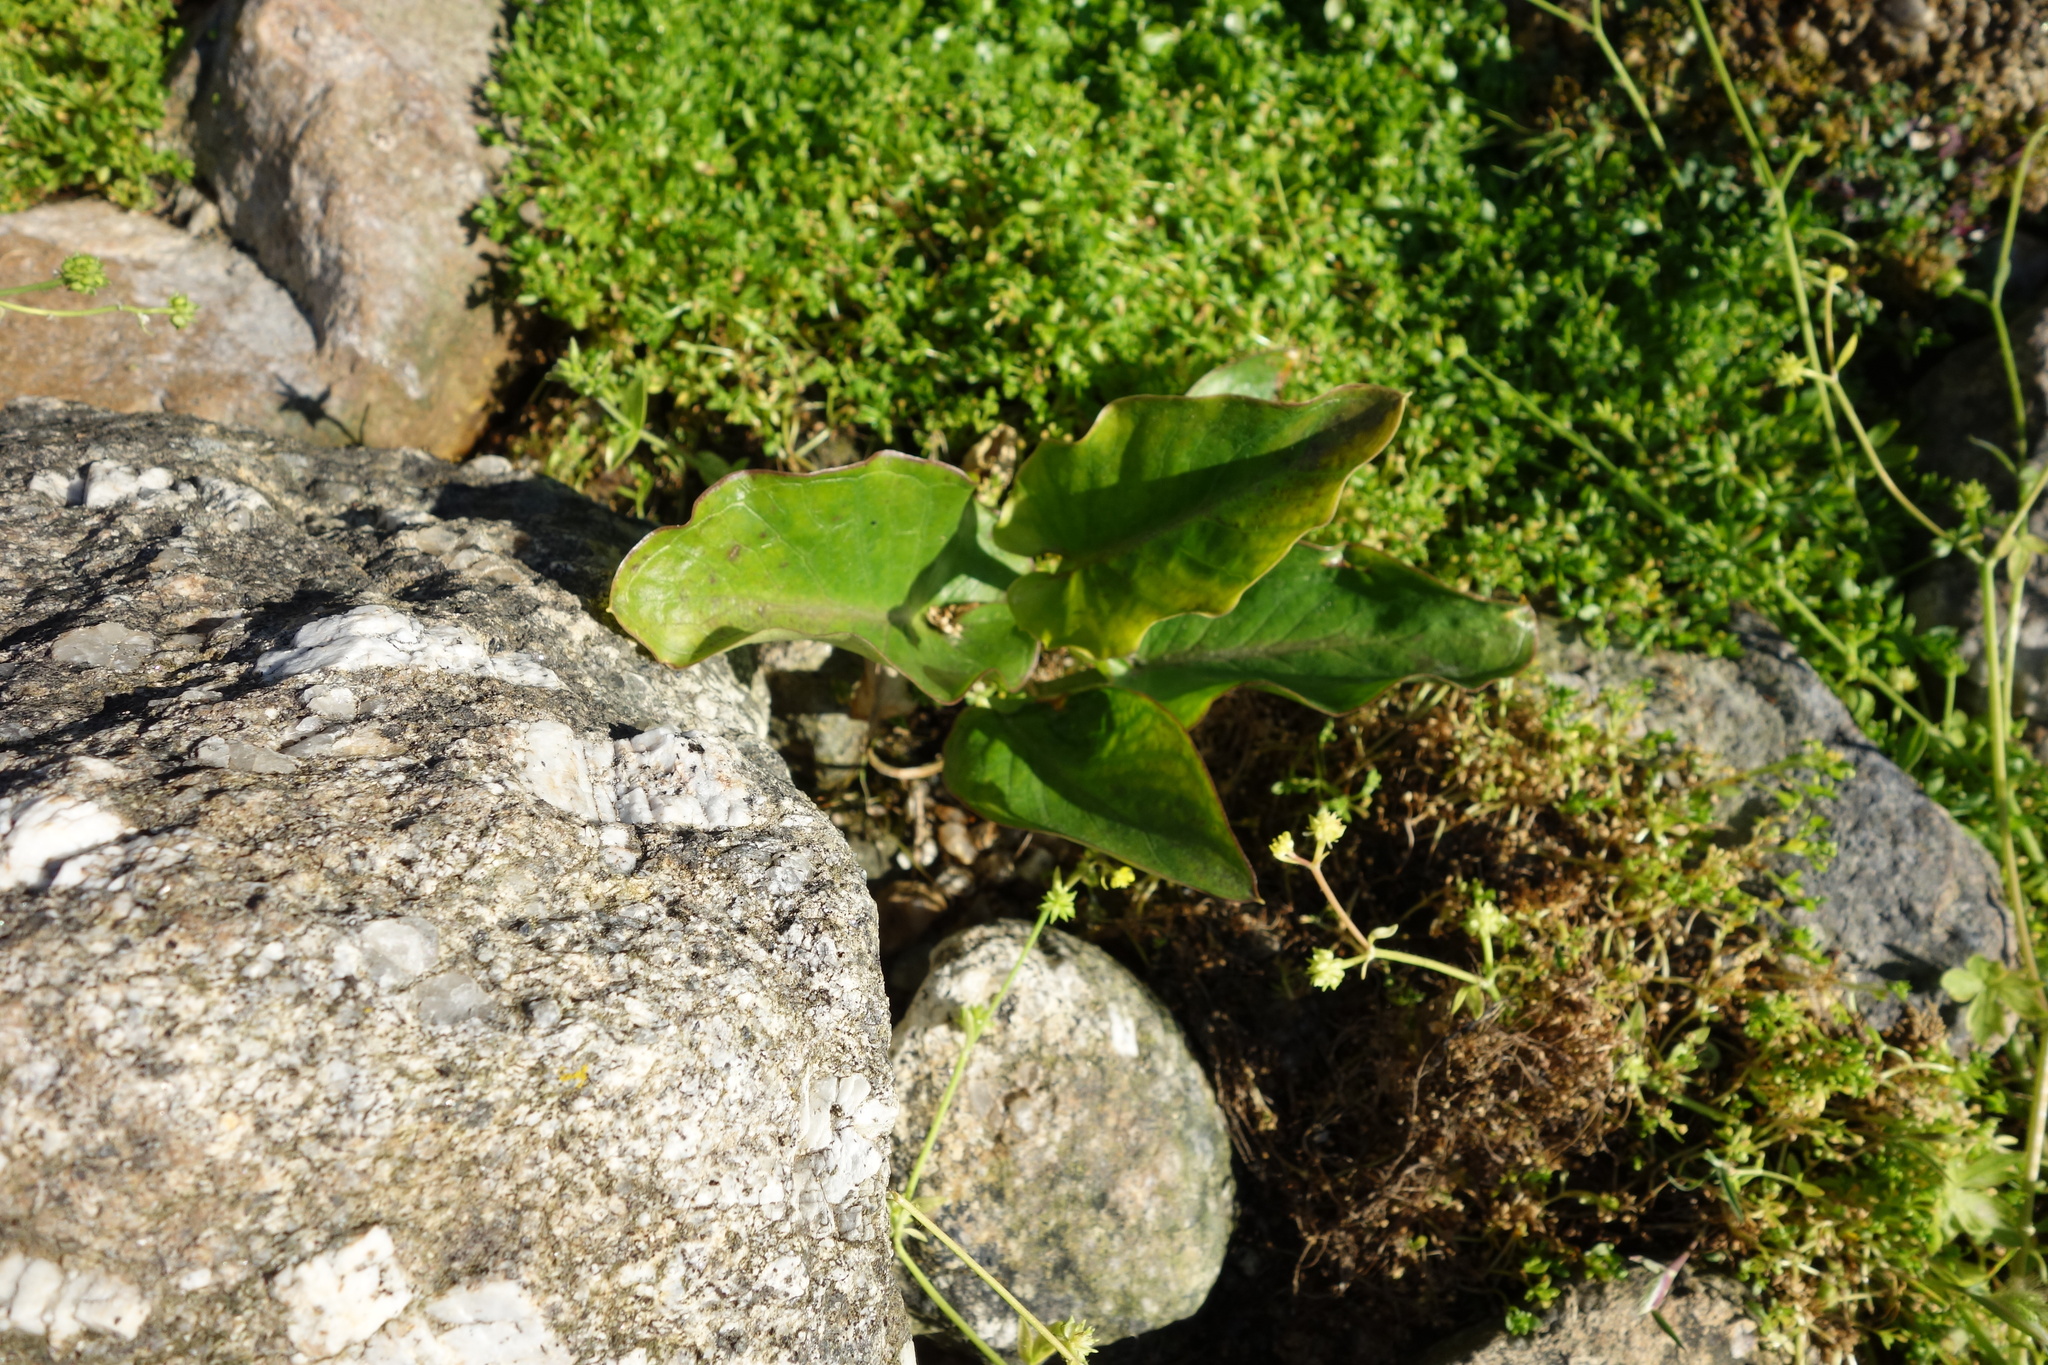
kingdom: Plantae
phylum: Tracheophyta
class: Liliopsida
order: Alismatales
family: Araceae
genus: Arum
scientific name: Arum pictum
